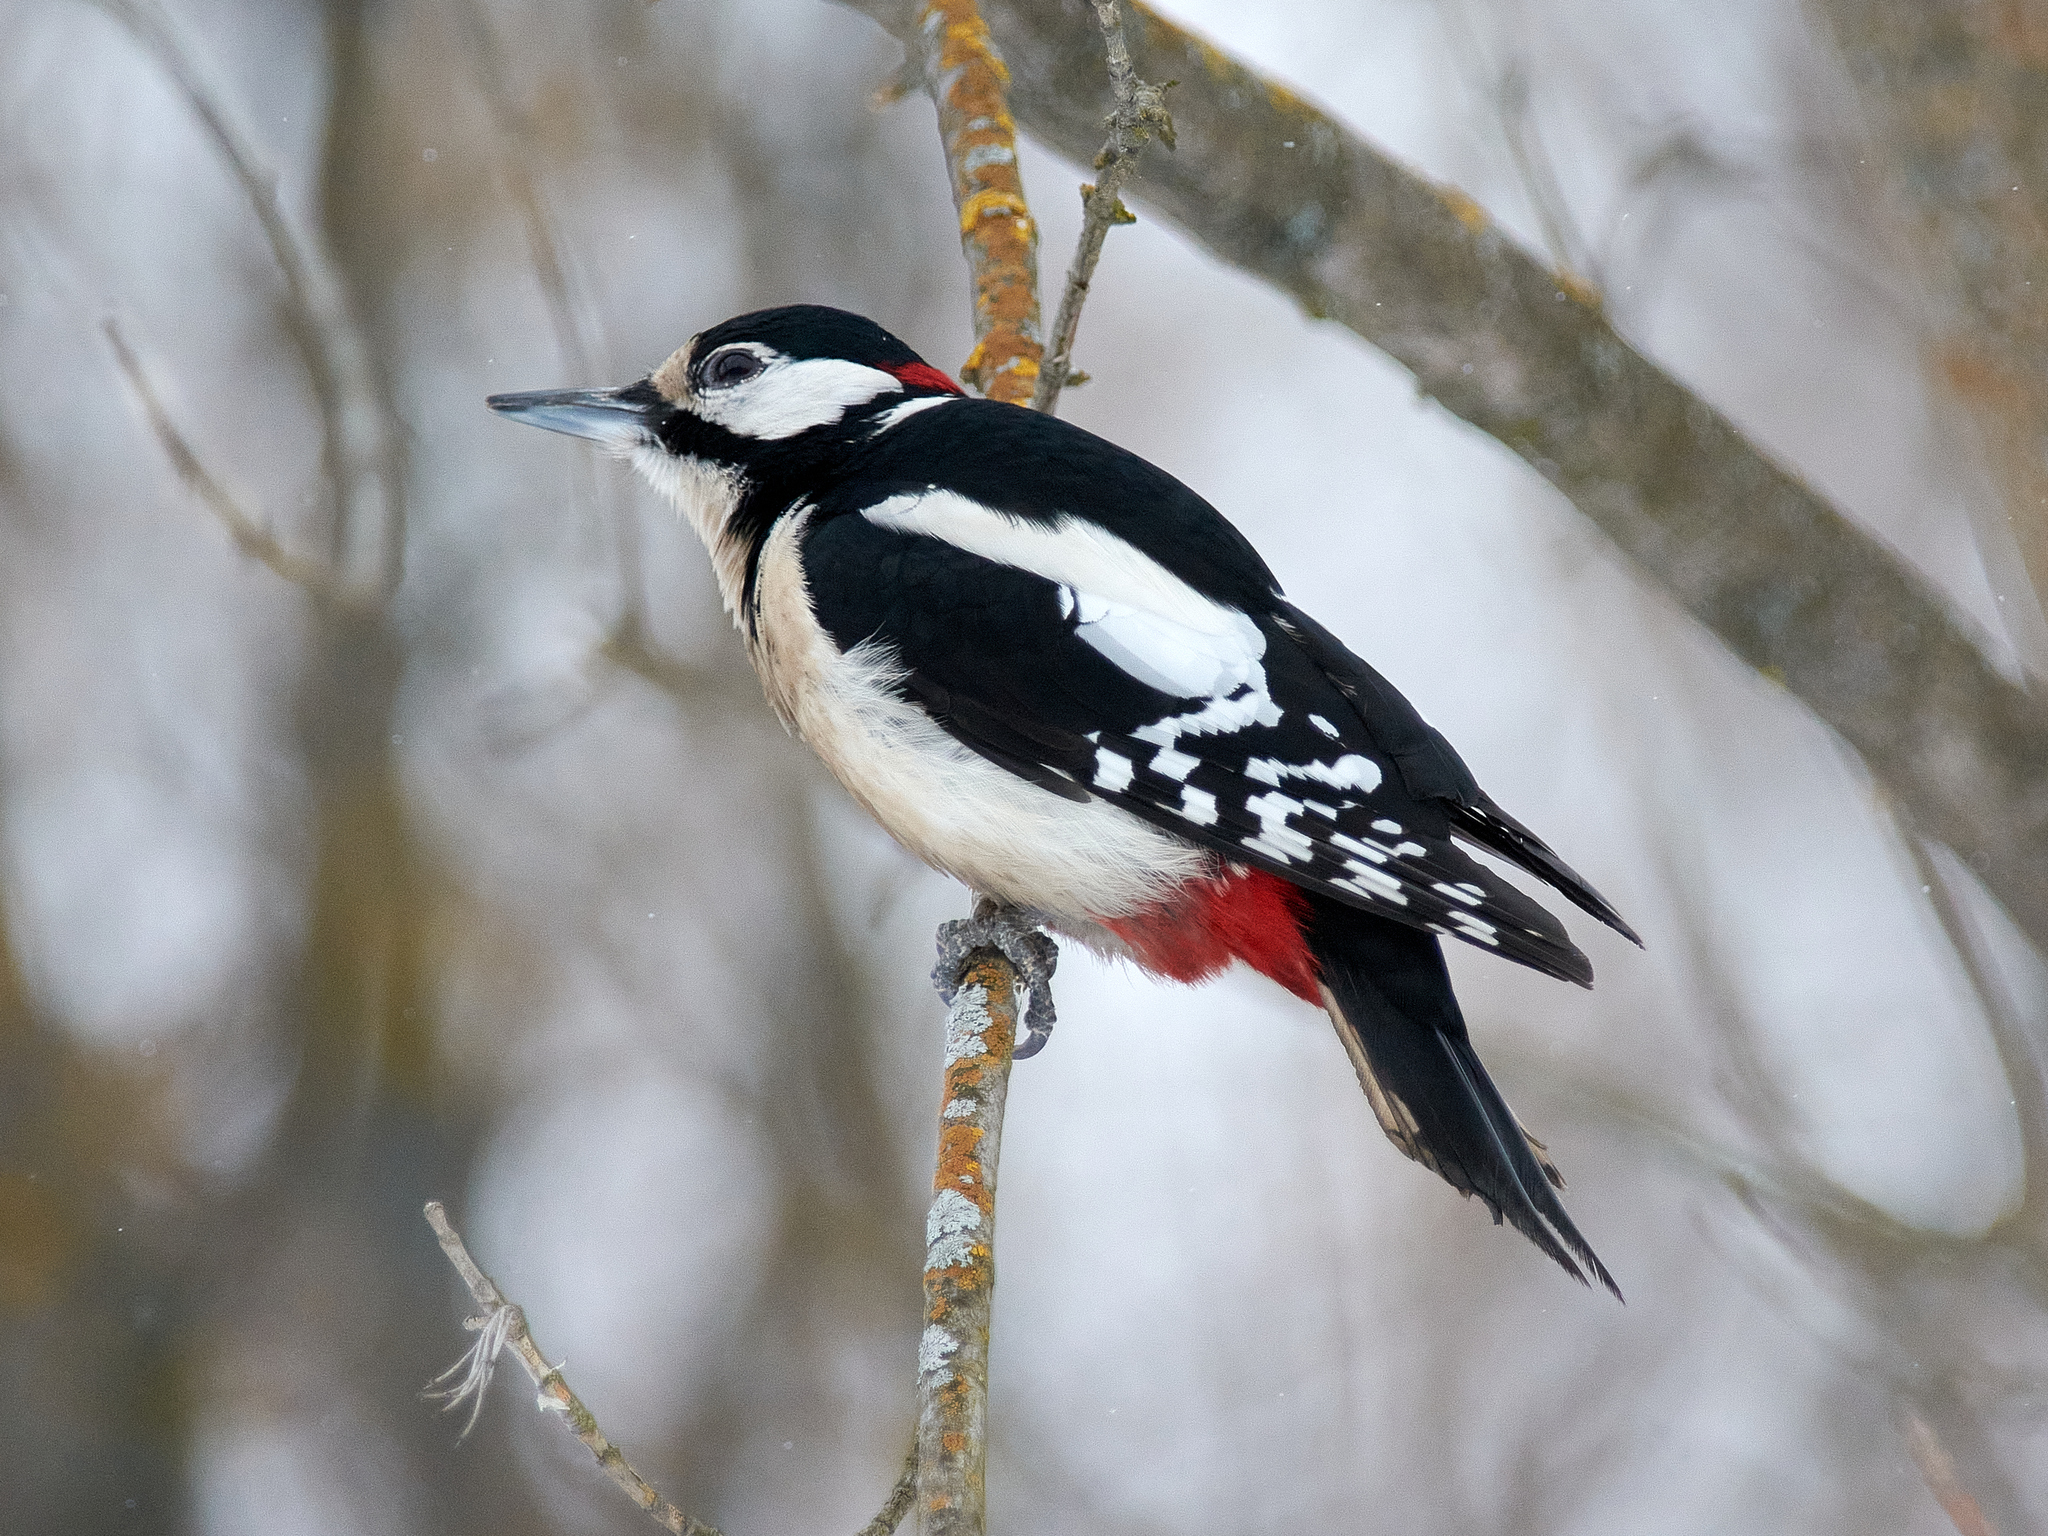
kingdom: Animalia
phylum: Chordata
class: Aves
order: Piciformes
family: Picidae
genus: Dendrocopos
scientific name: Dendrocopos major
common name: Great spotted woodpecker
